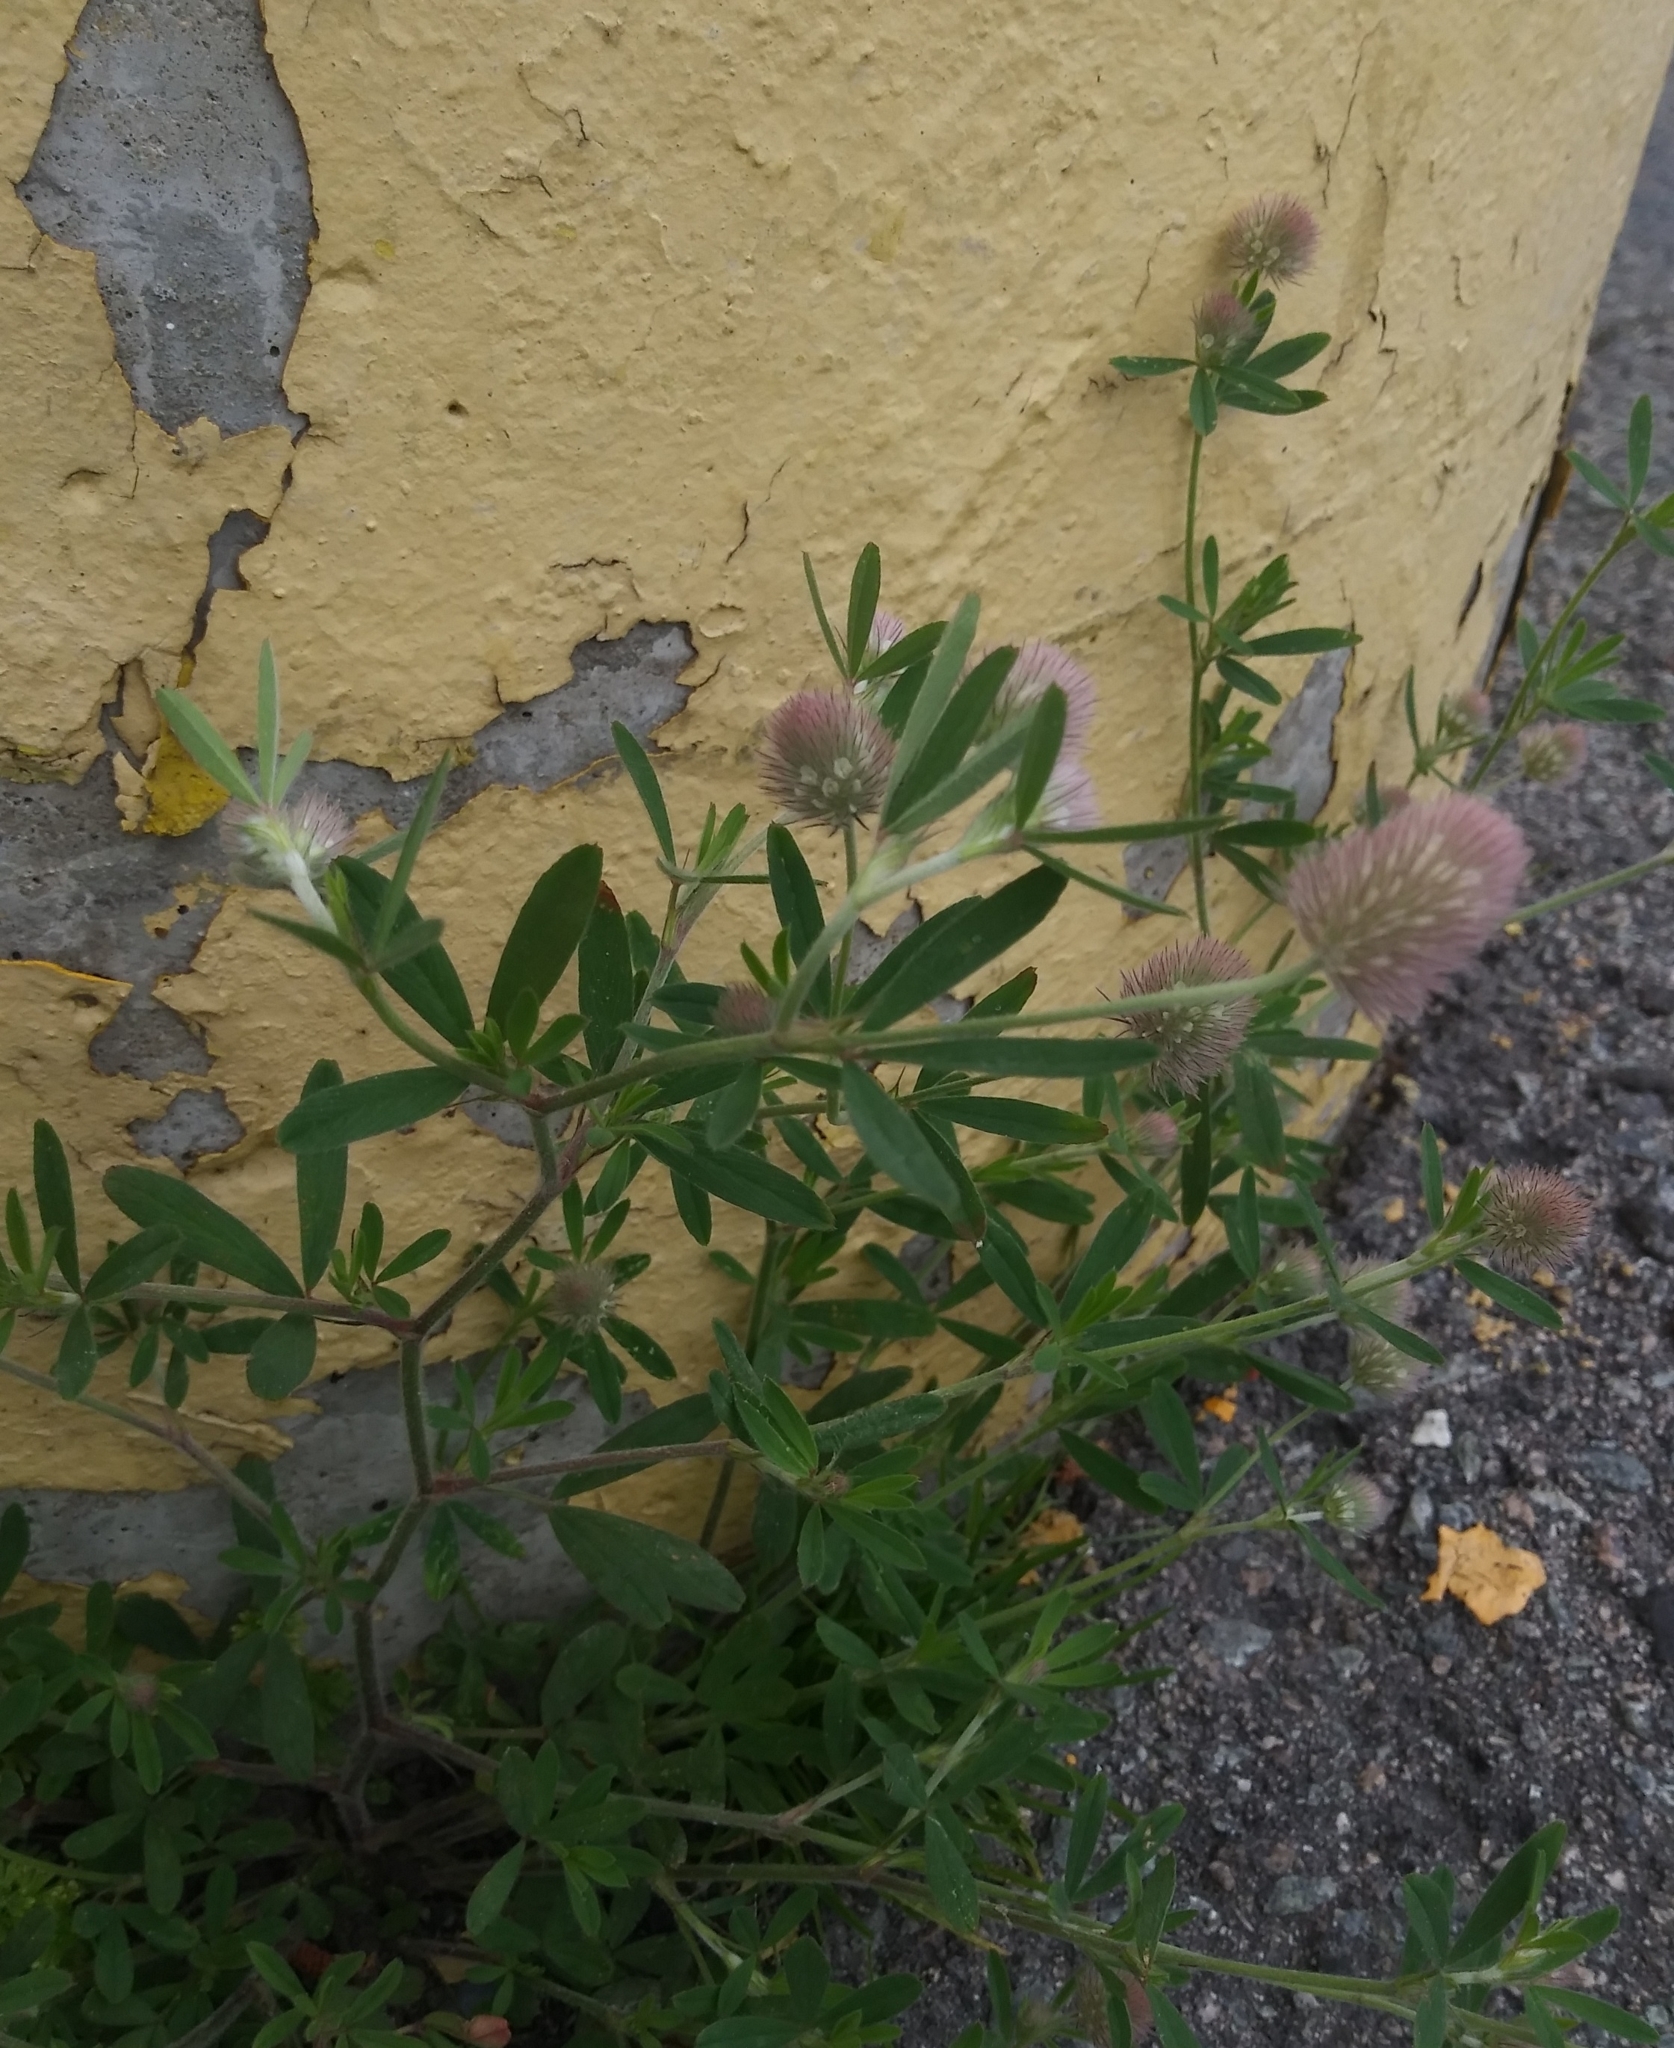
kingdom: Plantae
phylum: Tracheophyta
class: Magnoliopsida
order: Fabales
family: Fabaceae
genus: Trifolium
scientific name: Trifolium arvense
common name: Hare's-foot clover
